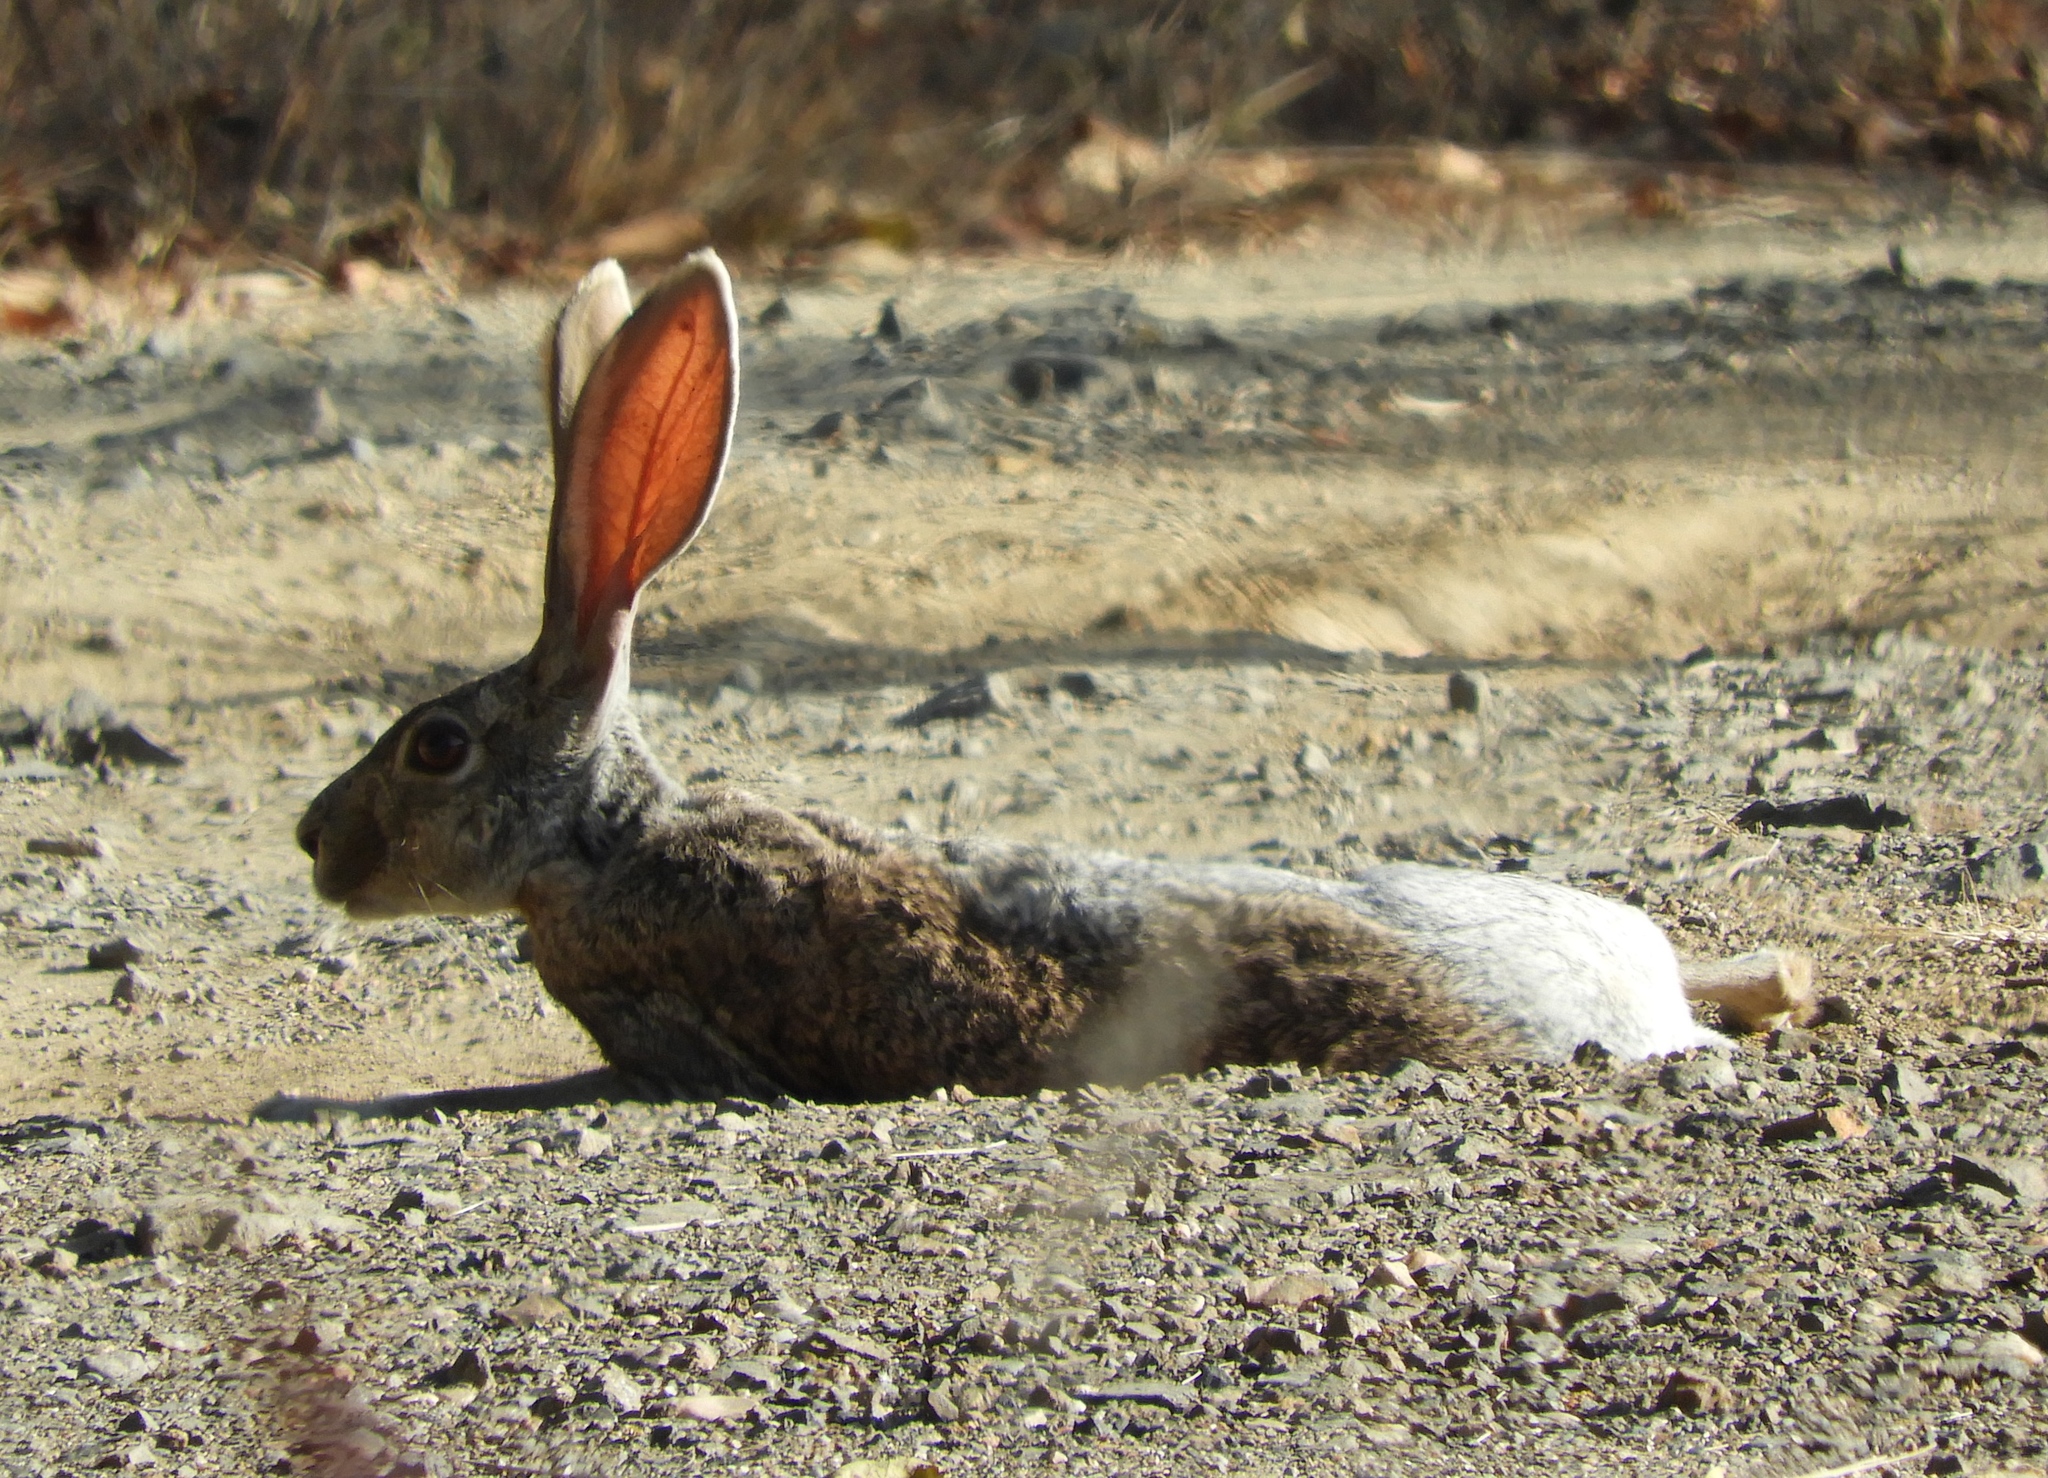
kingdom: Animalia
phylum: Chordata
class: Mammalia
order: Lagomorpha
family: Leporidae
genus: Lepus
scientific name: Lepus alleni
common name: Antelope jackrabbit
